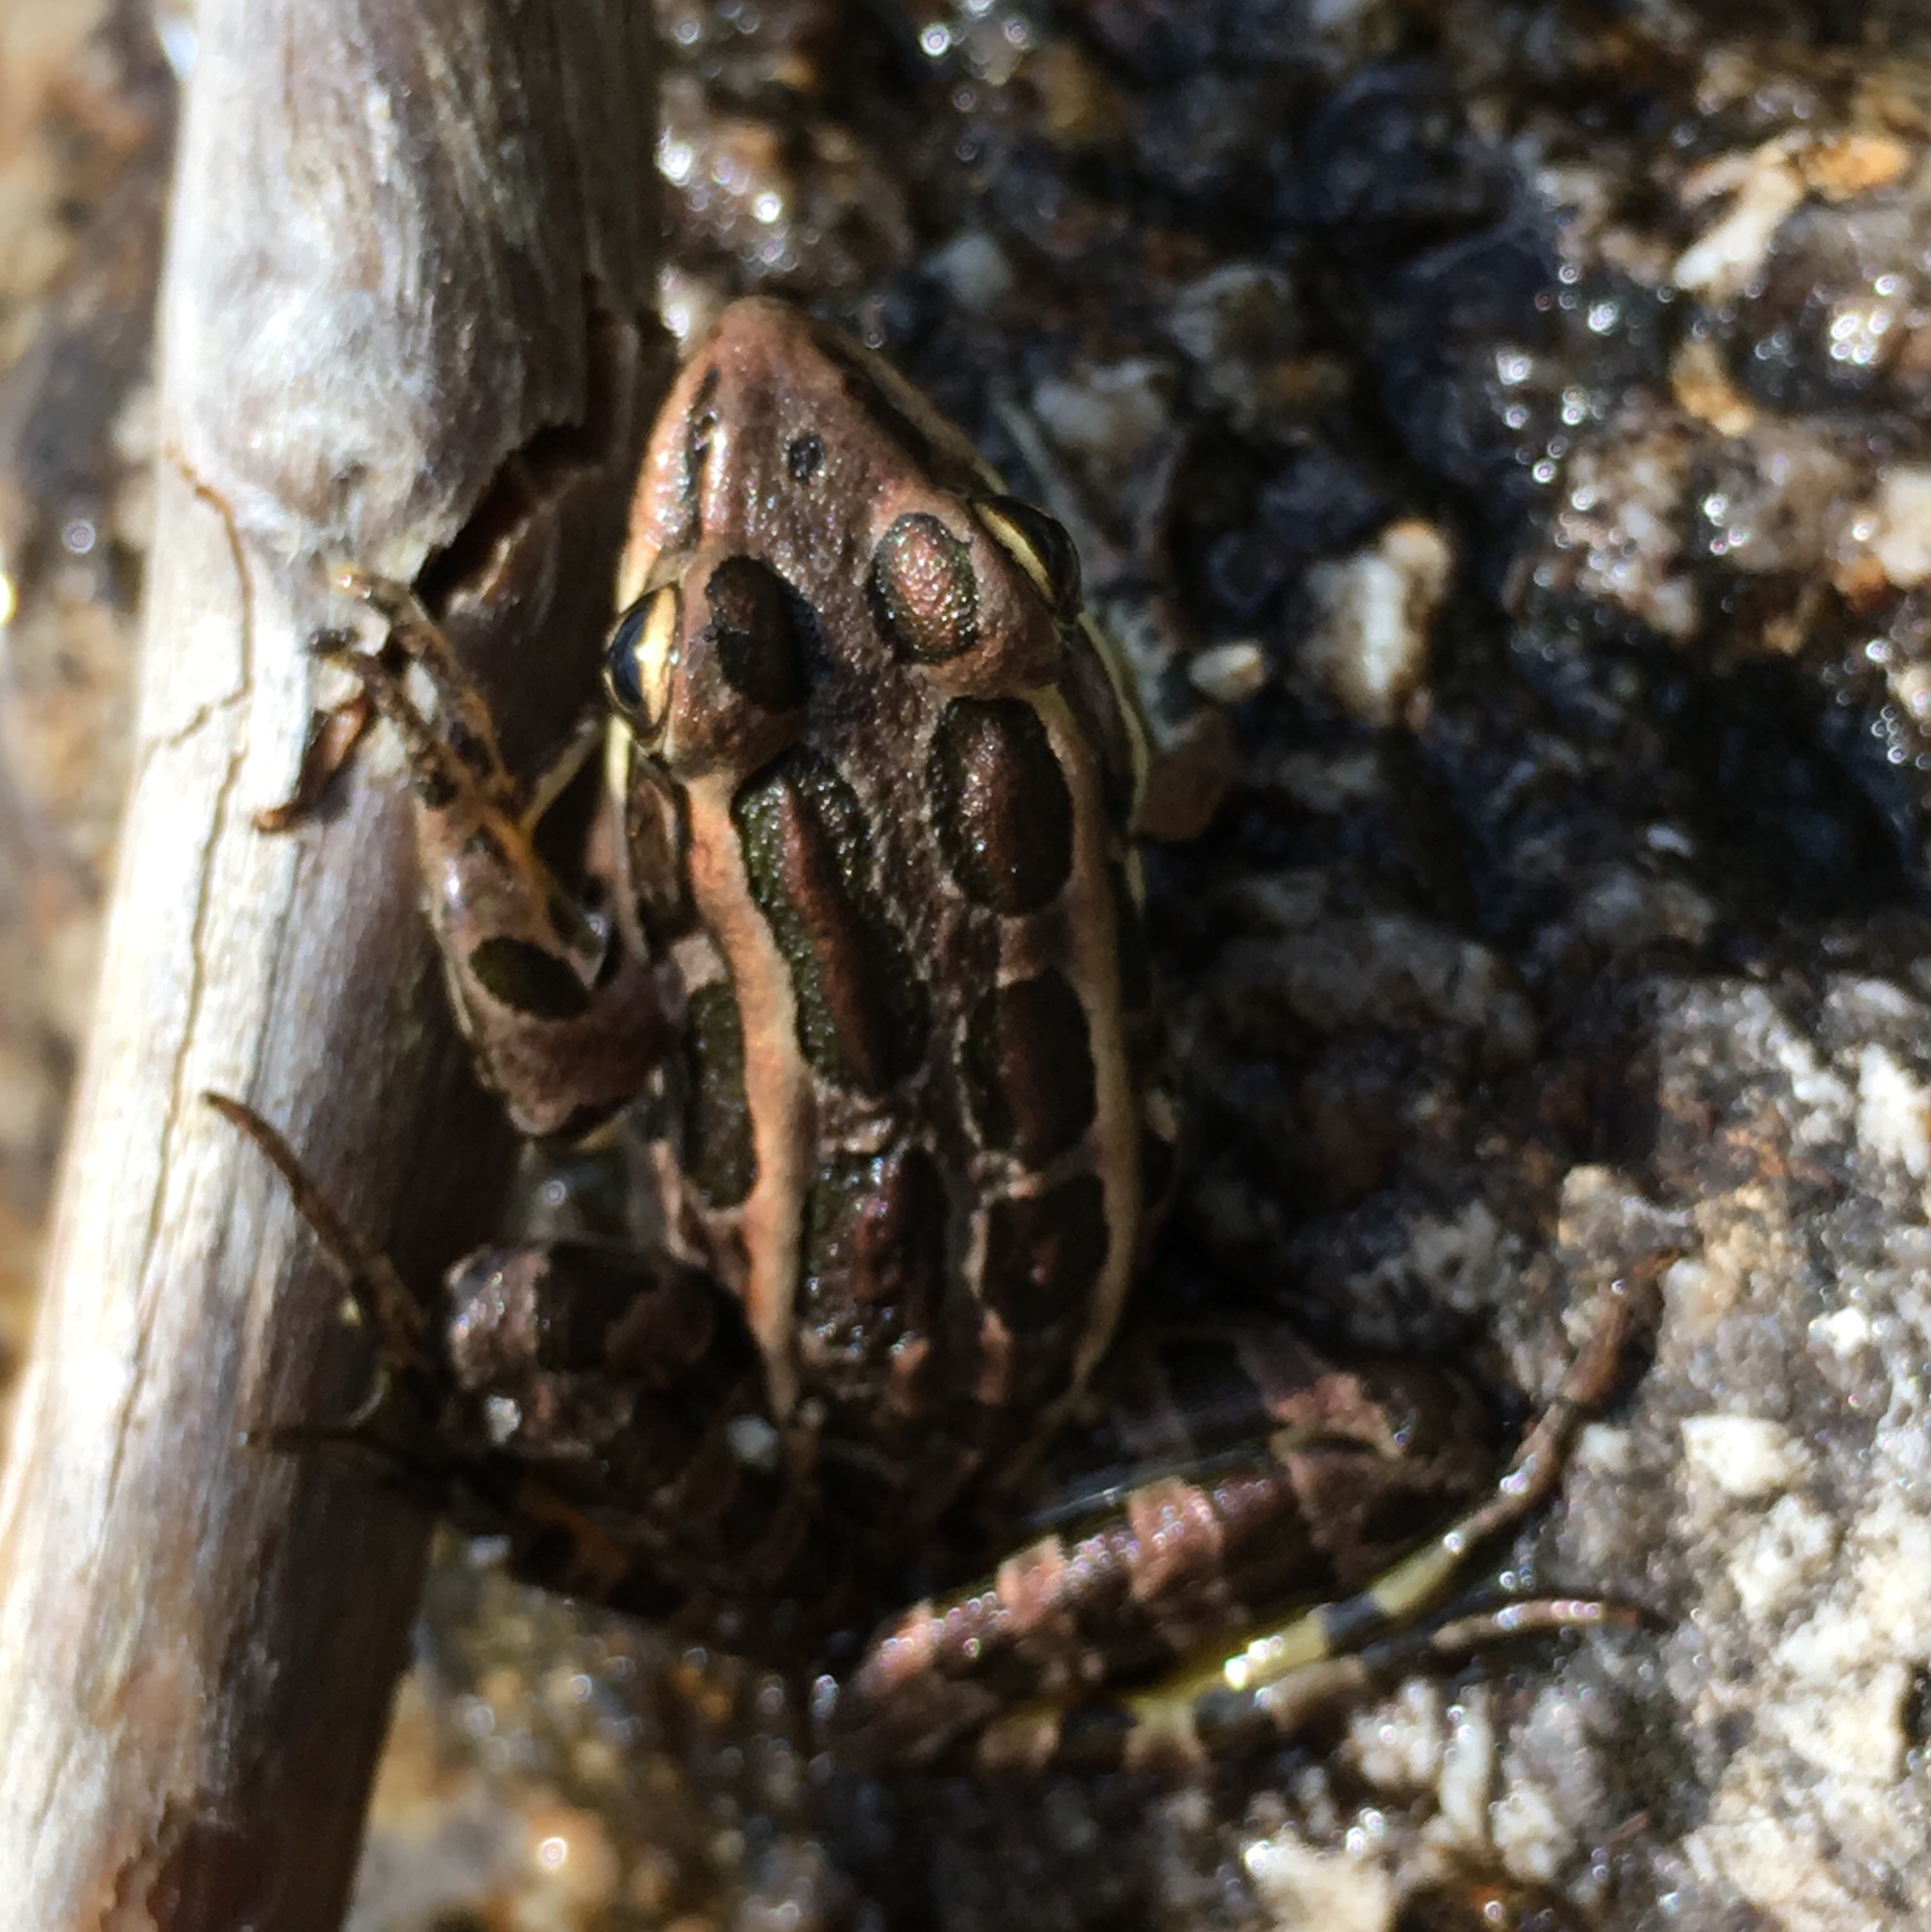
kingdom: Animalia
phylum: Chordata
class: Amphibia
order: Anura
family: Ranidae
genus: Lithobates
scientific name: Lithobates palustris
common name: Pickerel frog
